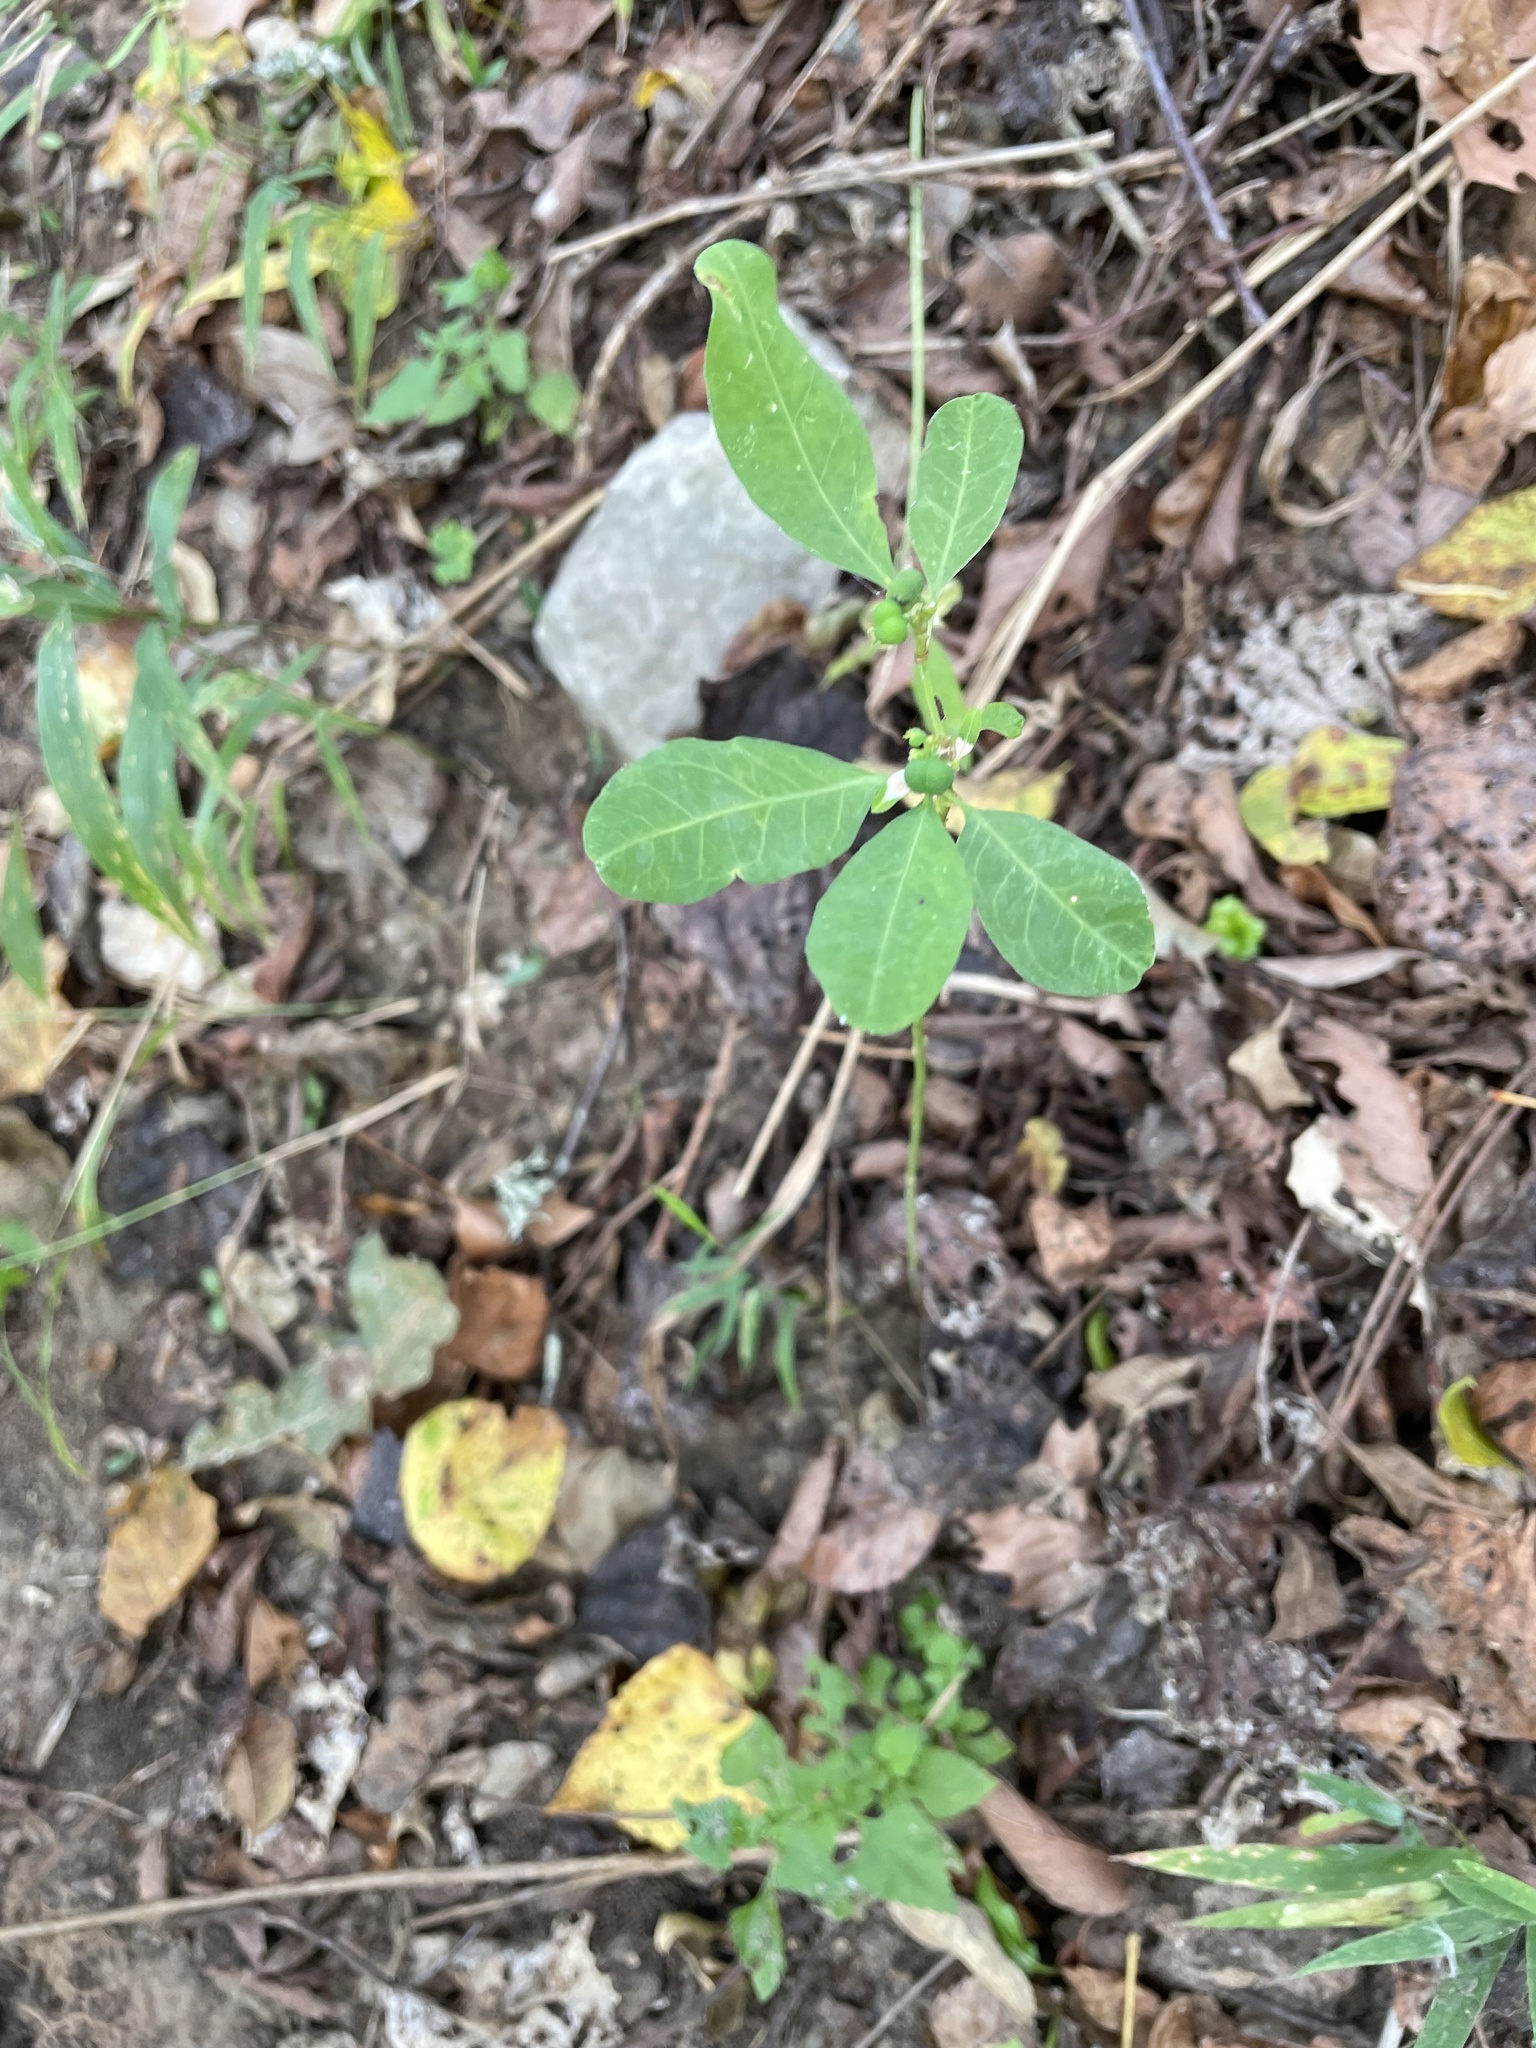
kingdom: Plantae
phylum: Tracheophyta
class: Magnoliopsida
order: Malpighiales
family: Euphorbiaceae
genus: Euphorbia
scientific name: Euphorbia heterophylla
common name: Mexican fireplant
